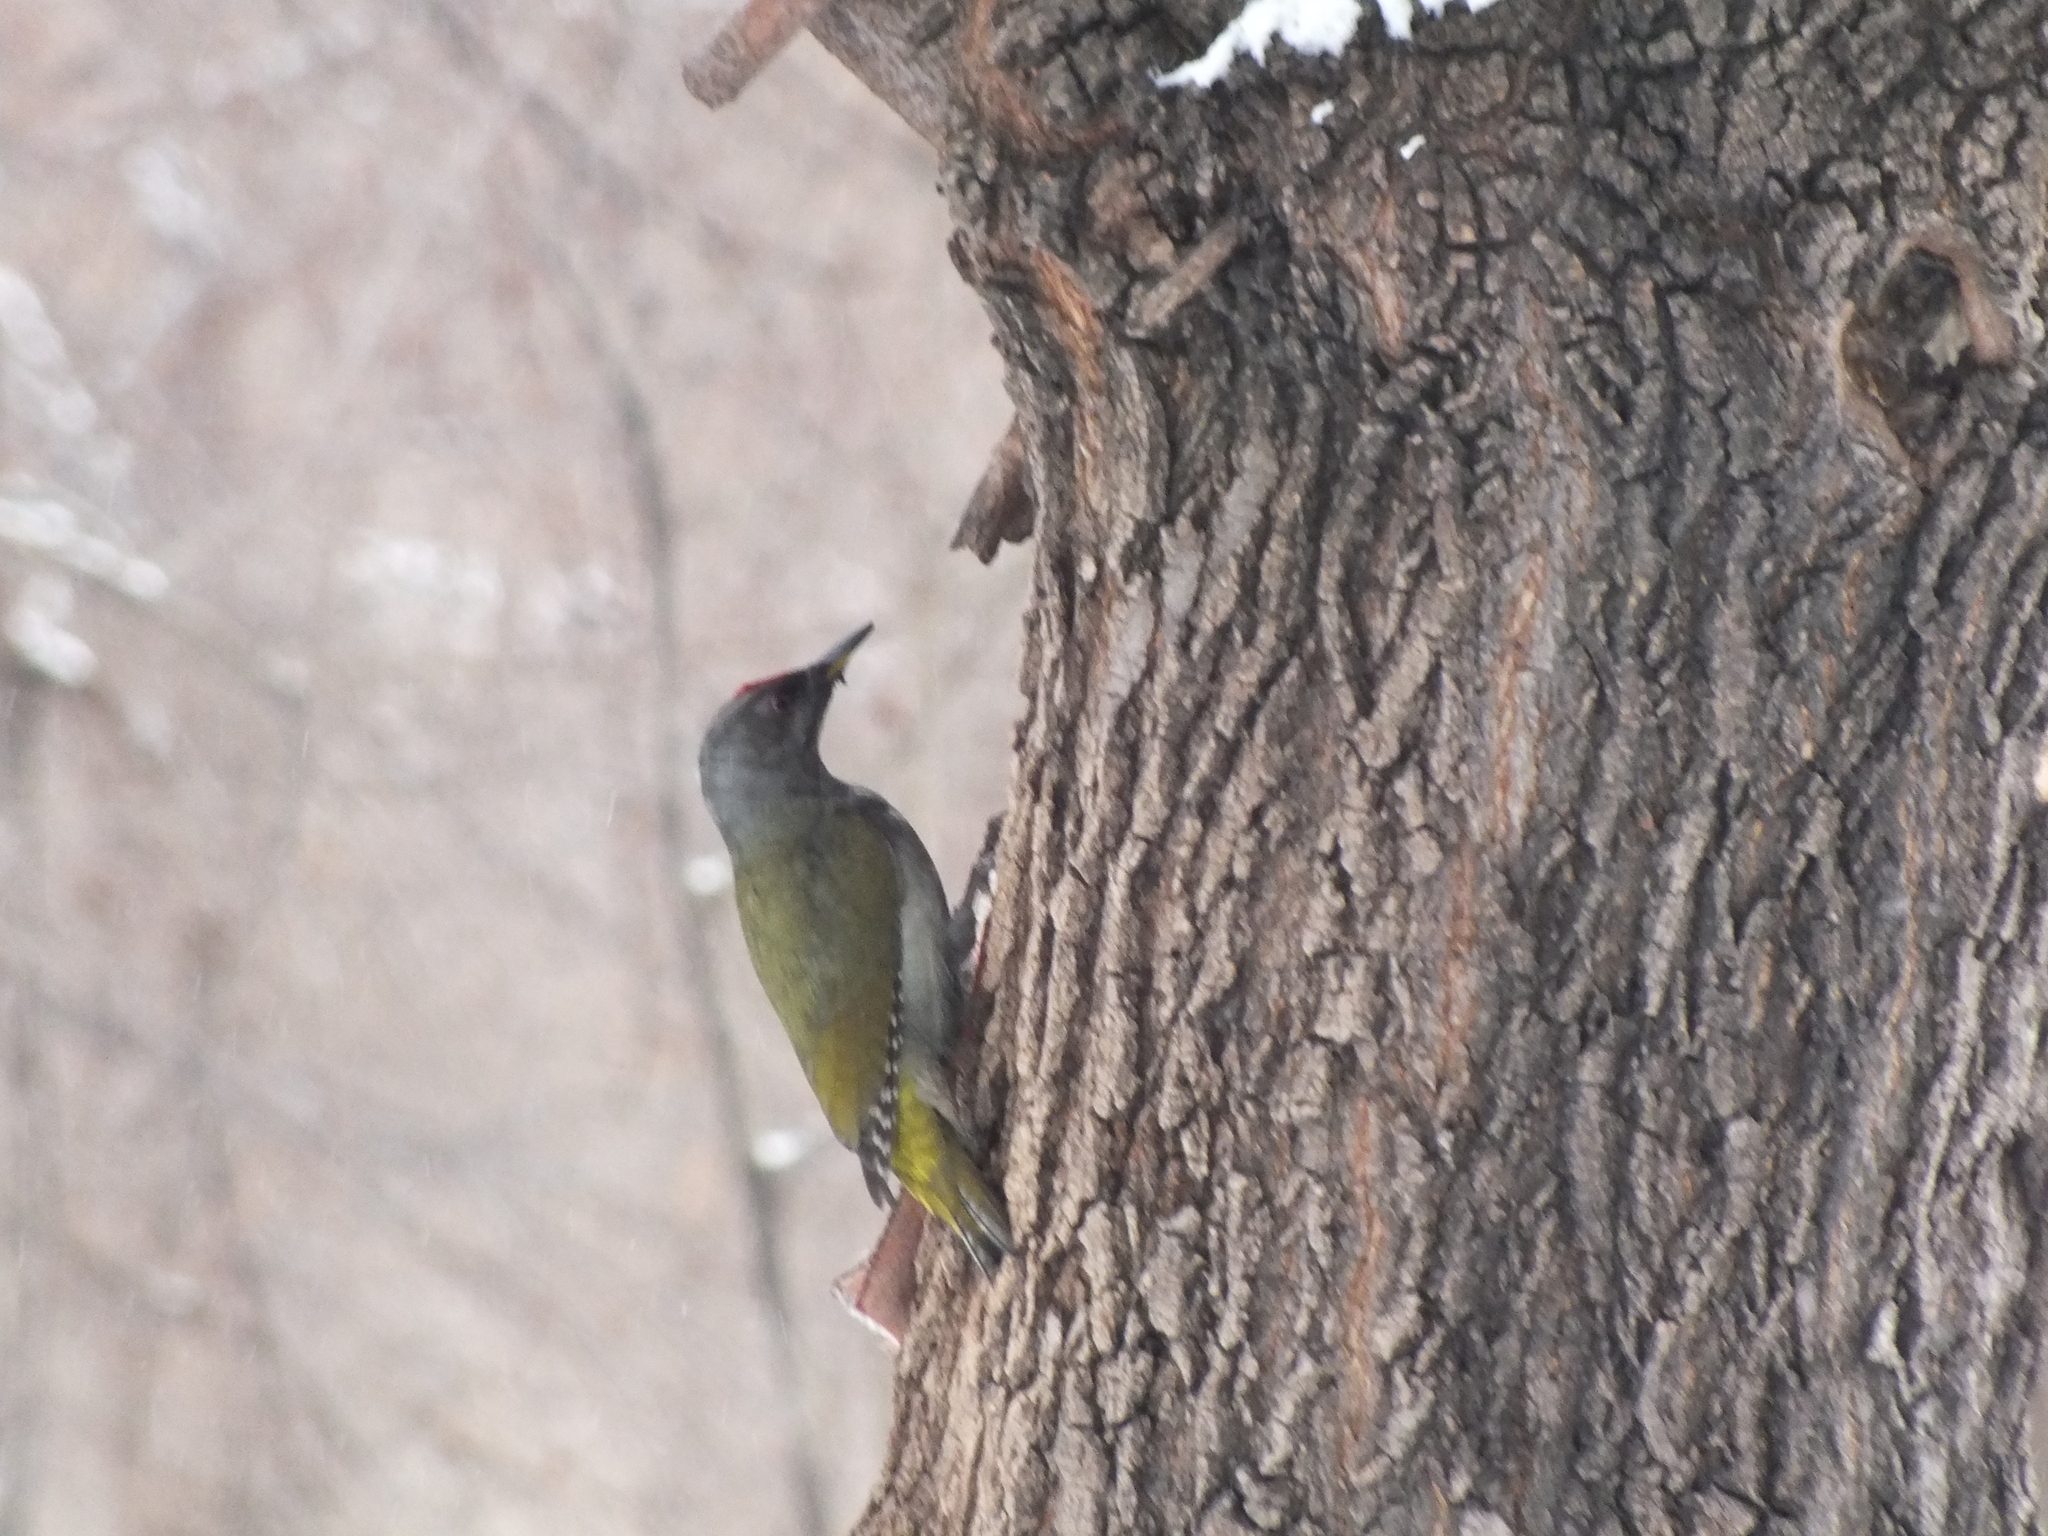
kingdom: Animalia
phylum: Chordata
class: Aves
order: Piciformes
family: Picidae
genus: Picus
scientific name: Picus canus
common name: Grey-headed woodpecker
